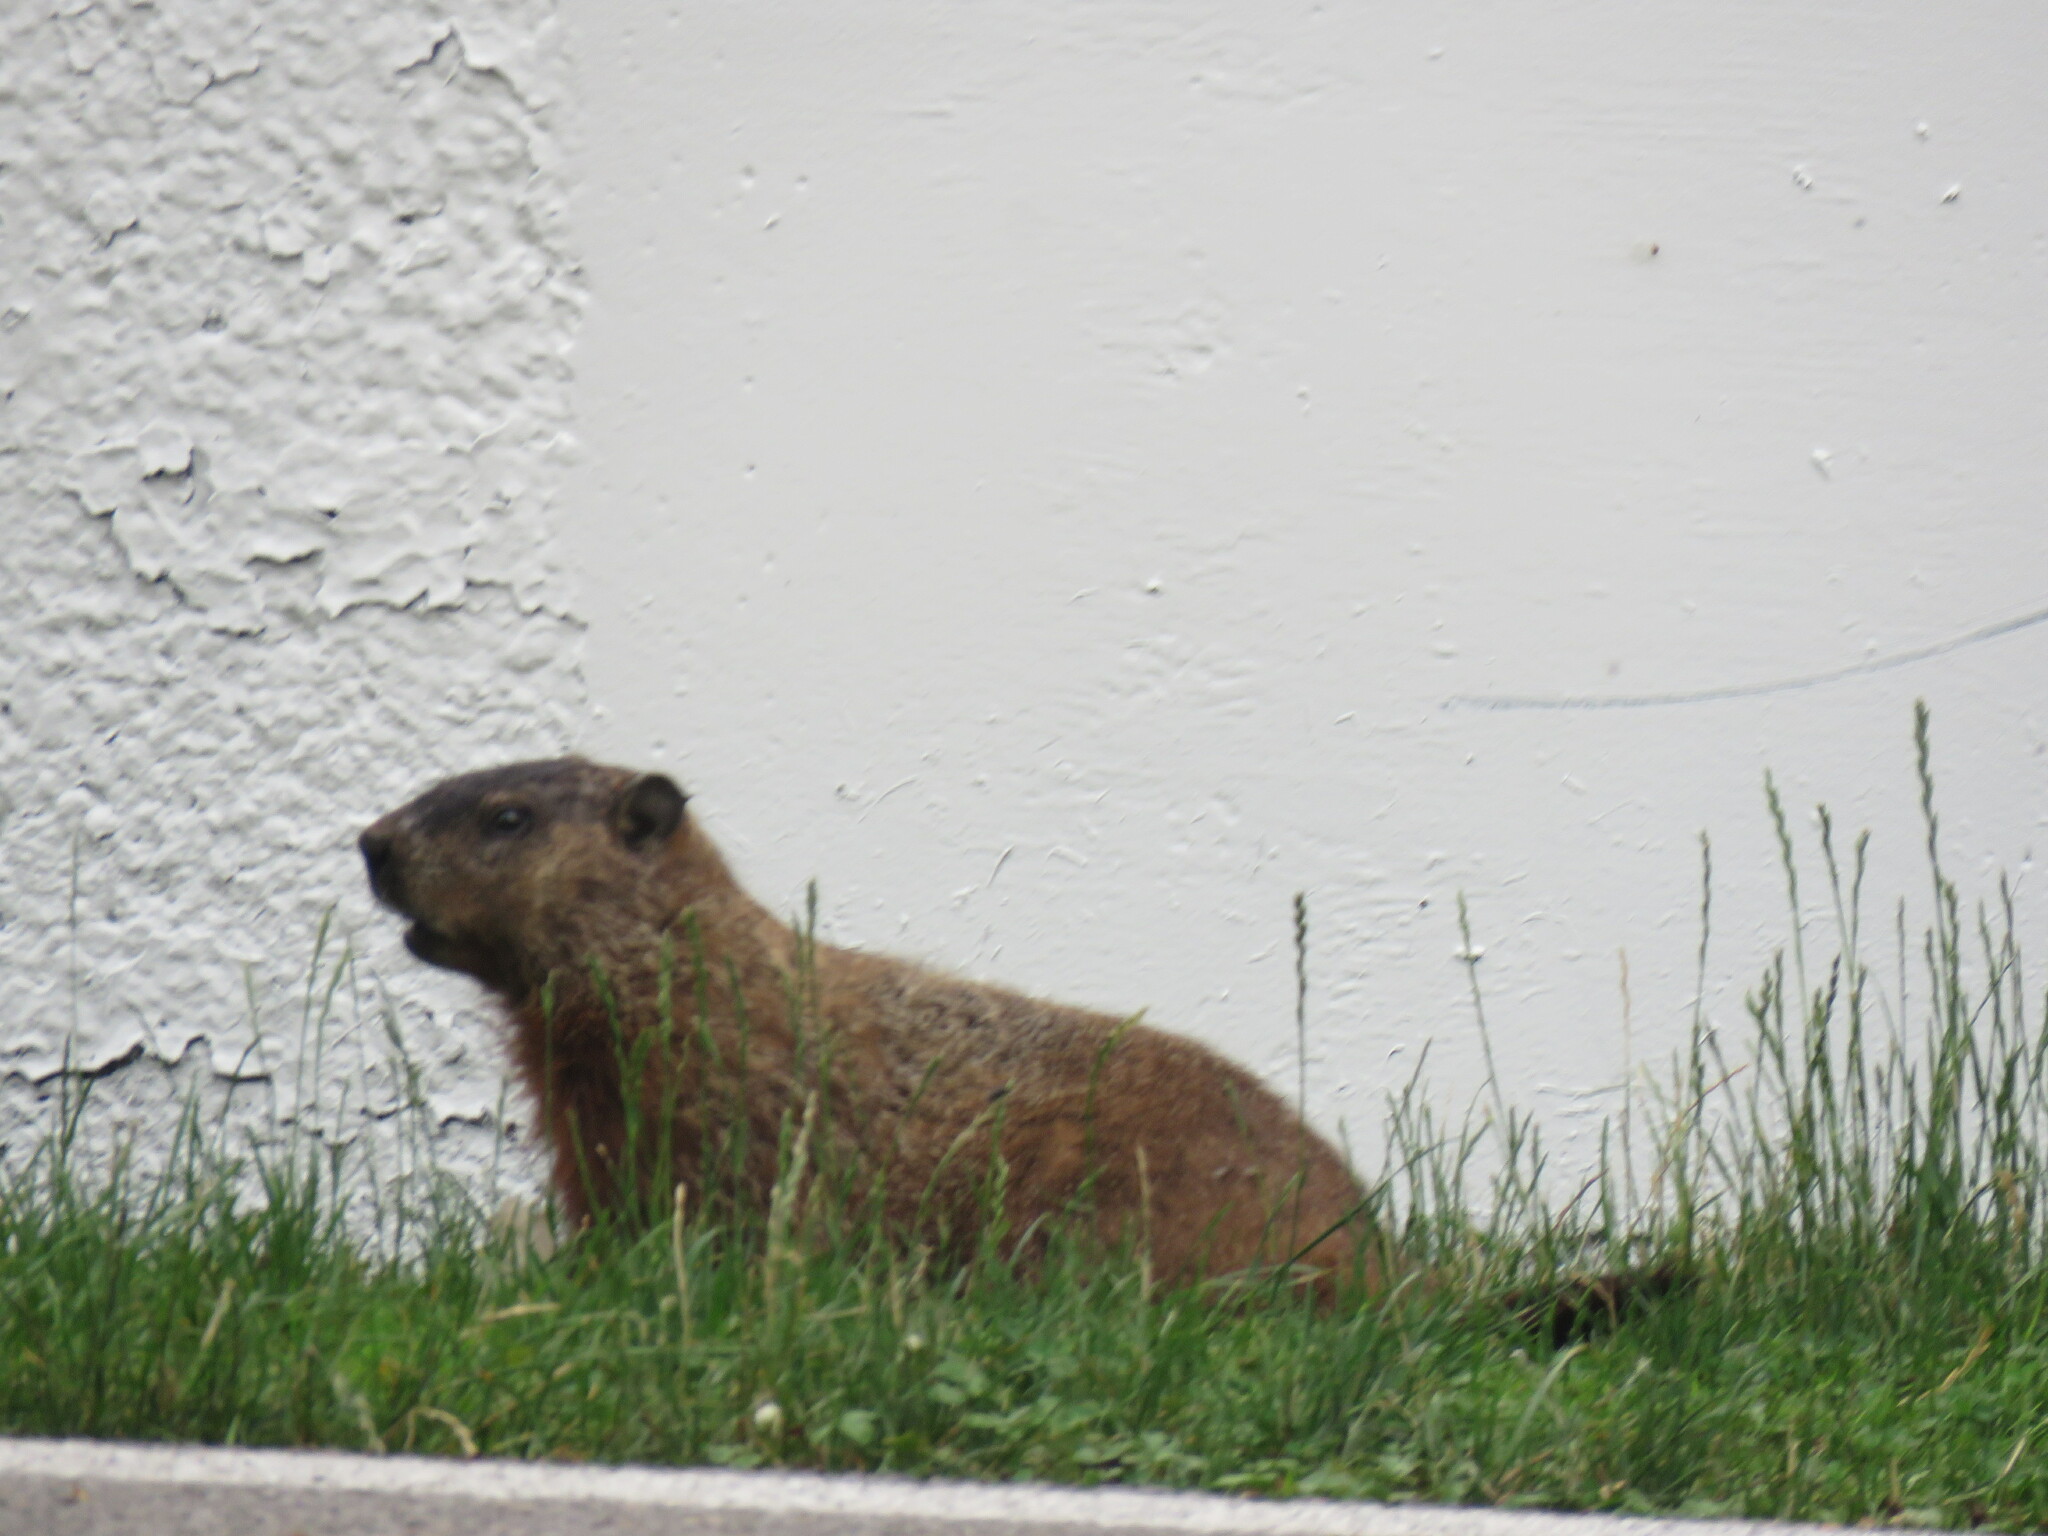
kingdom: Animalia
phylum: Chordata
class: Mammalia
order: Rodentia
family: Sciuridae
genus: Marmota
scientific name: Marmota monax
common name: Groundhog
